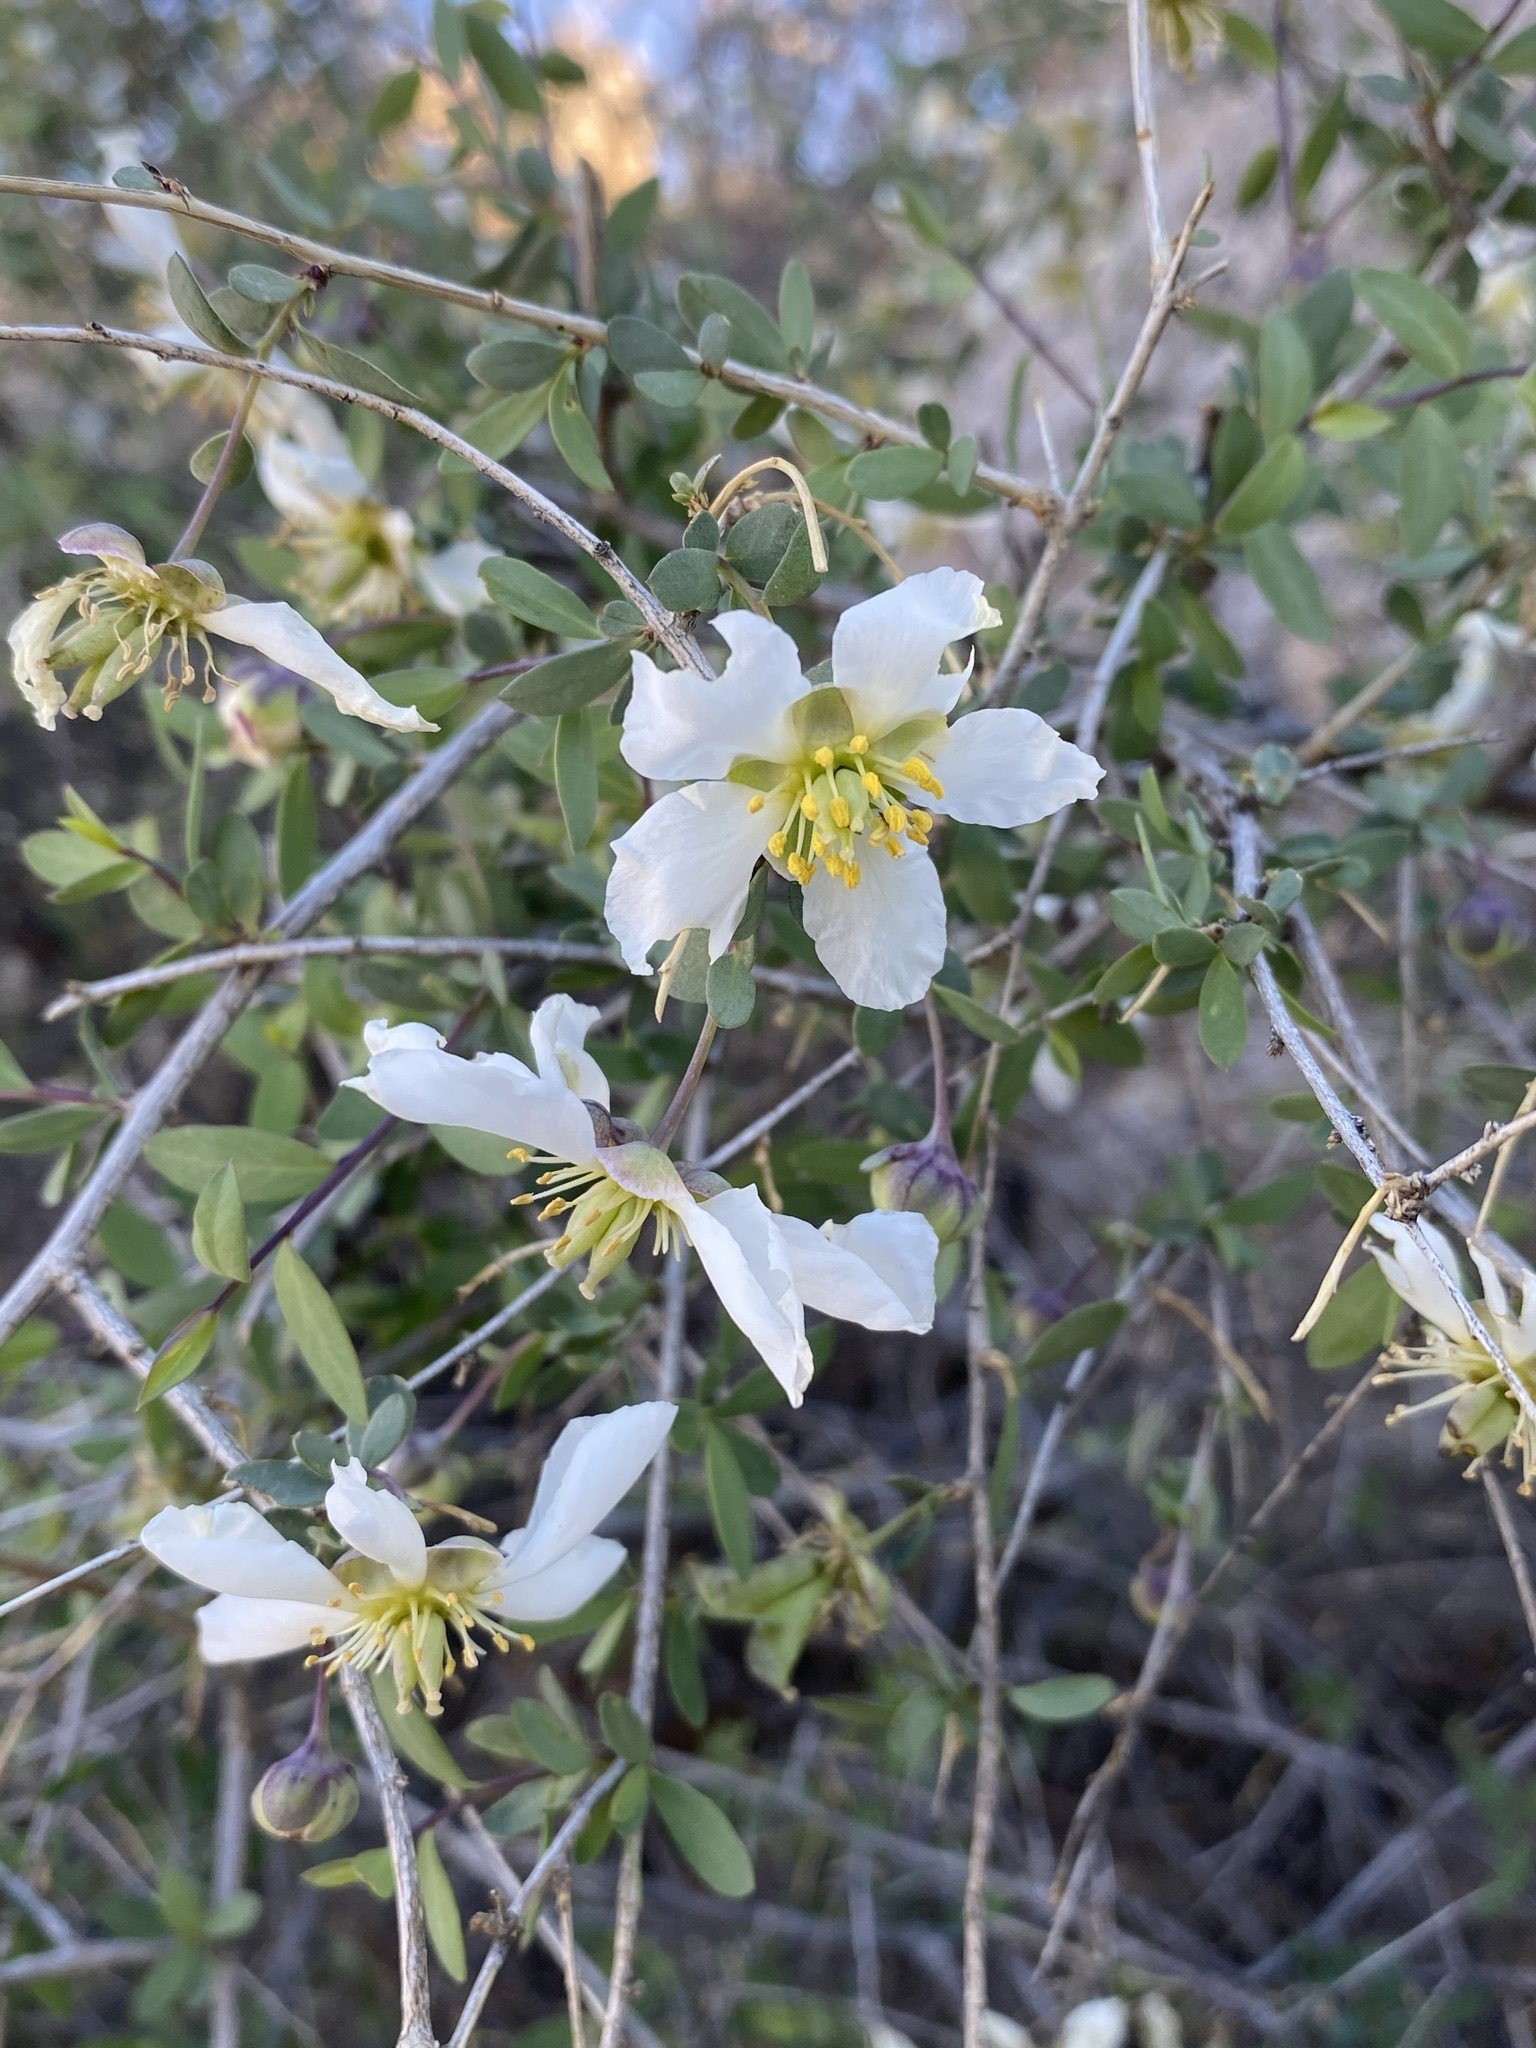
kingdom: Plantae
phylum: Tracheophyta
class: Magnoliopsida
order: Crossosomatales
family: Crossosomataceae
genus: Crossosoma
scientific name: Crossosoma bigelovii
